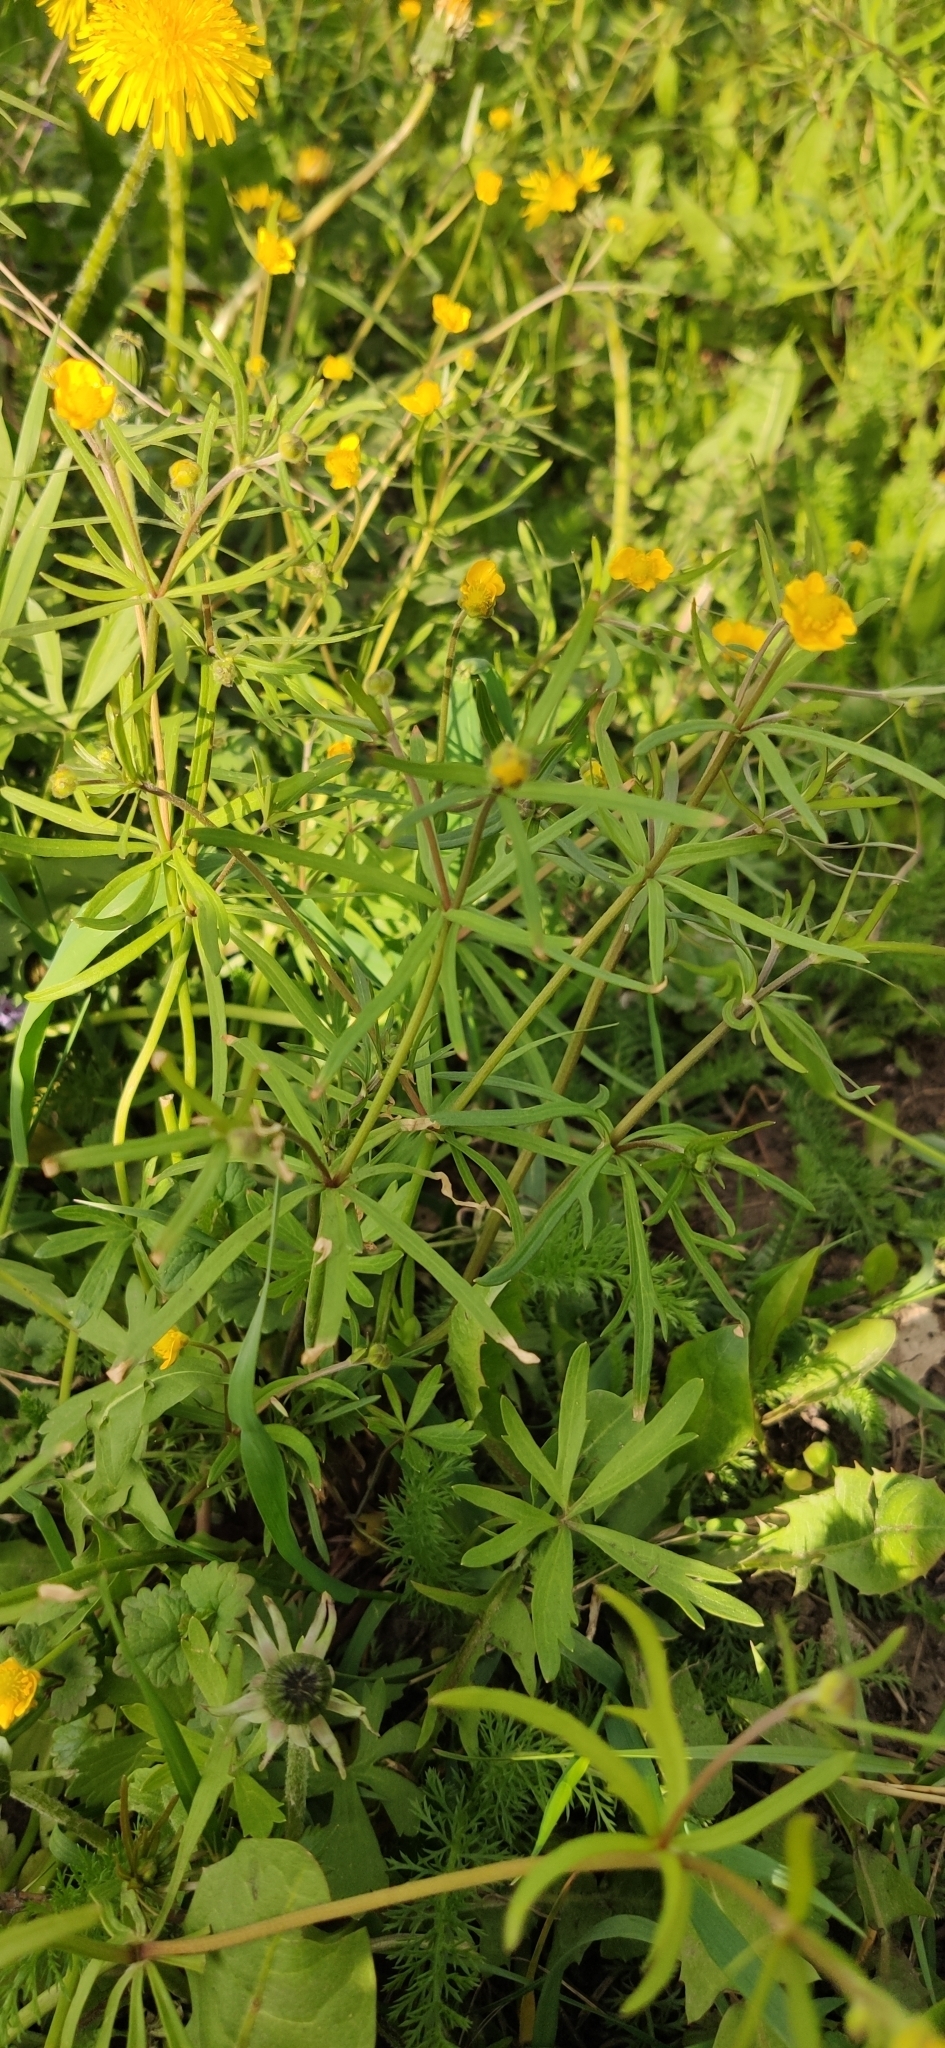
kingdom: Plantae
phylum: Tracheophyta
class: Magnoliopsida
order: Ranunculales
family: Ranunculaceae
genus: Ranunculus
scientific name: Ranunculus auricomus
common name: Goldilocks buttercup
